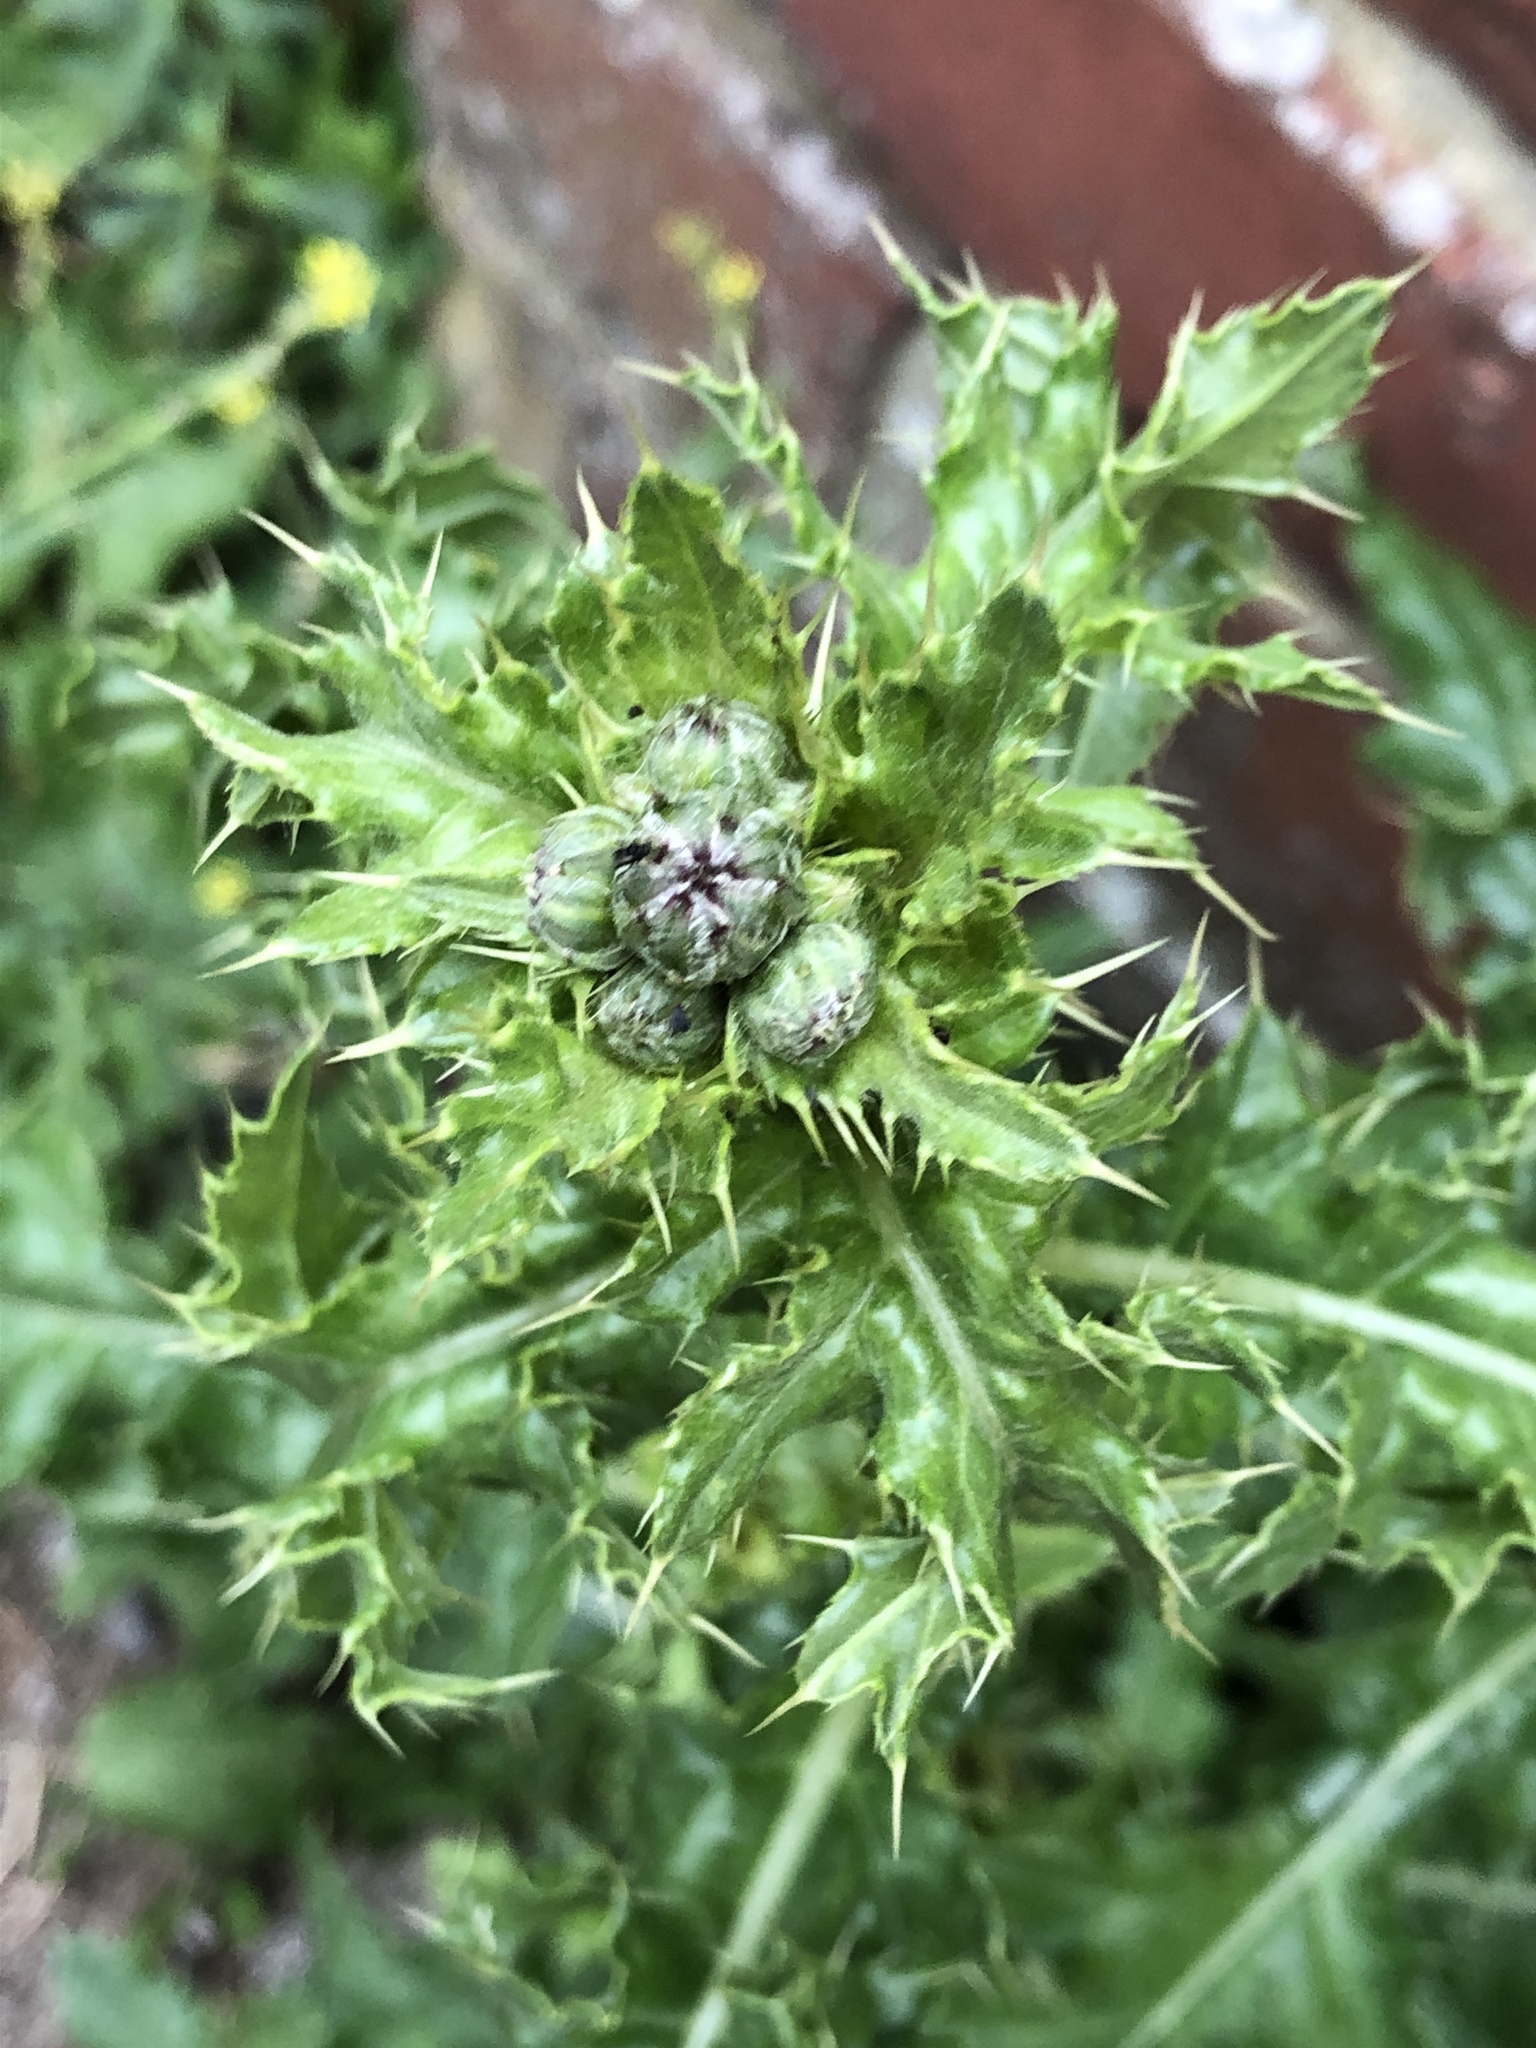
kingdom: Plantae
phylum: Tracheophyta
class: Magnoliopsida
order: Asterales
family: Asteraceae
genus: Cirsium
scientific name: Cirsium arvense
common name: Creeping thistle
